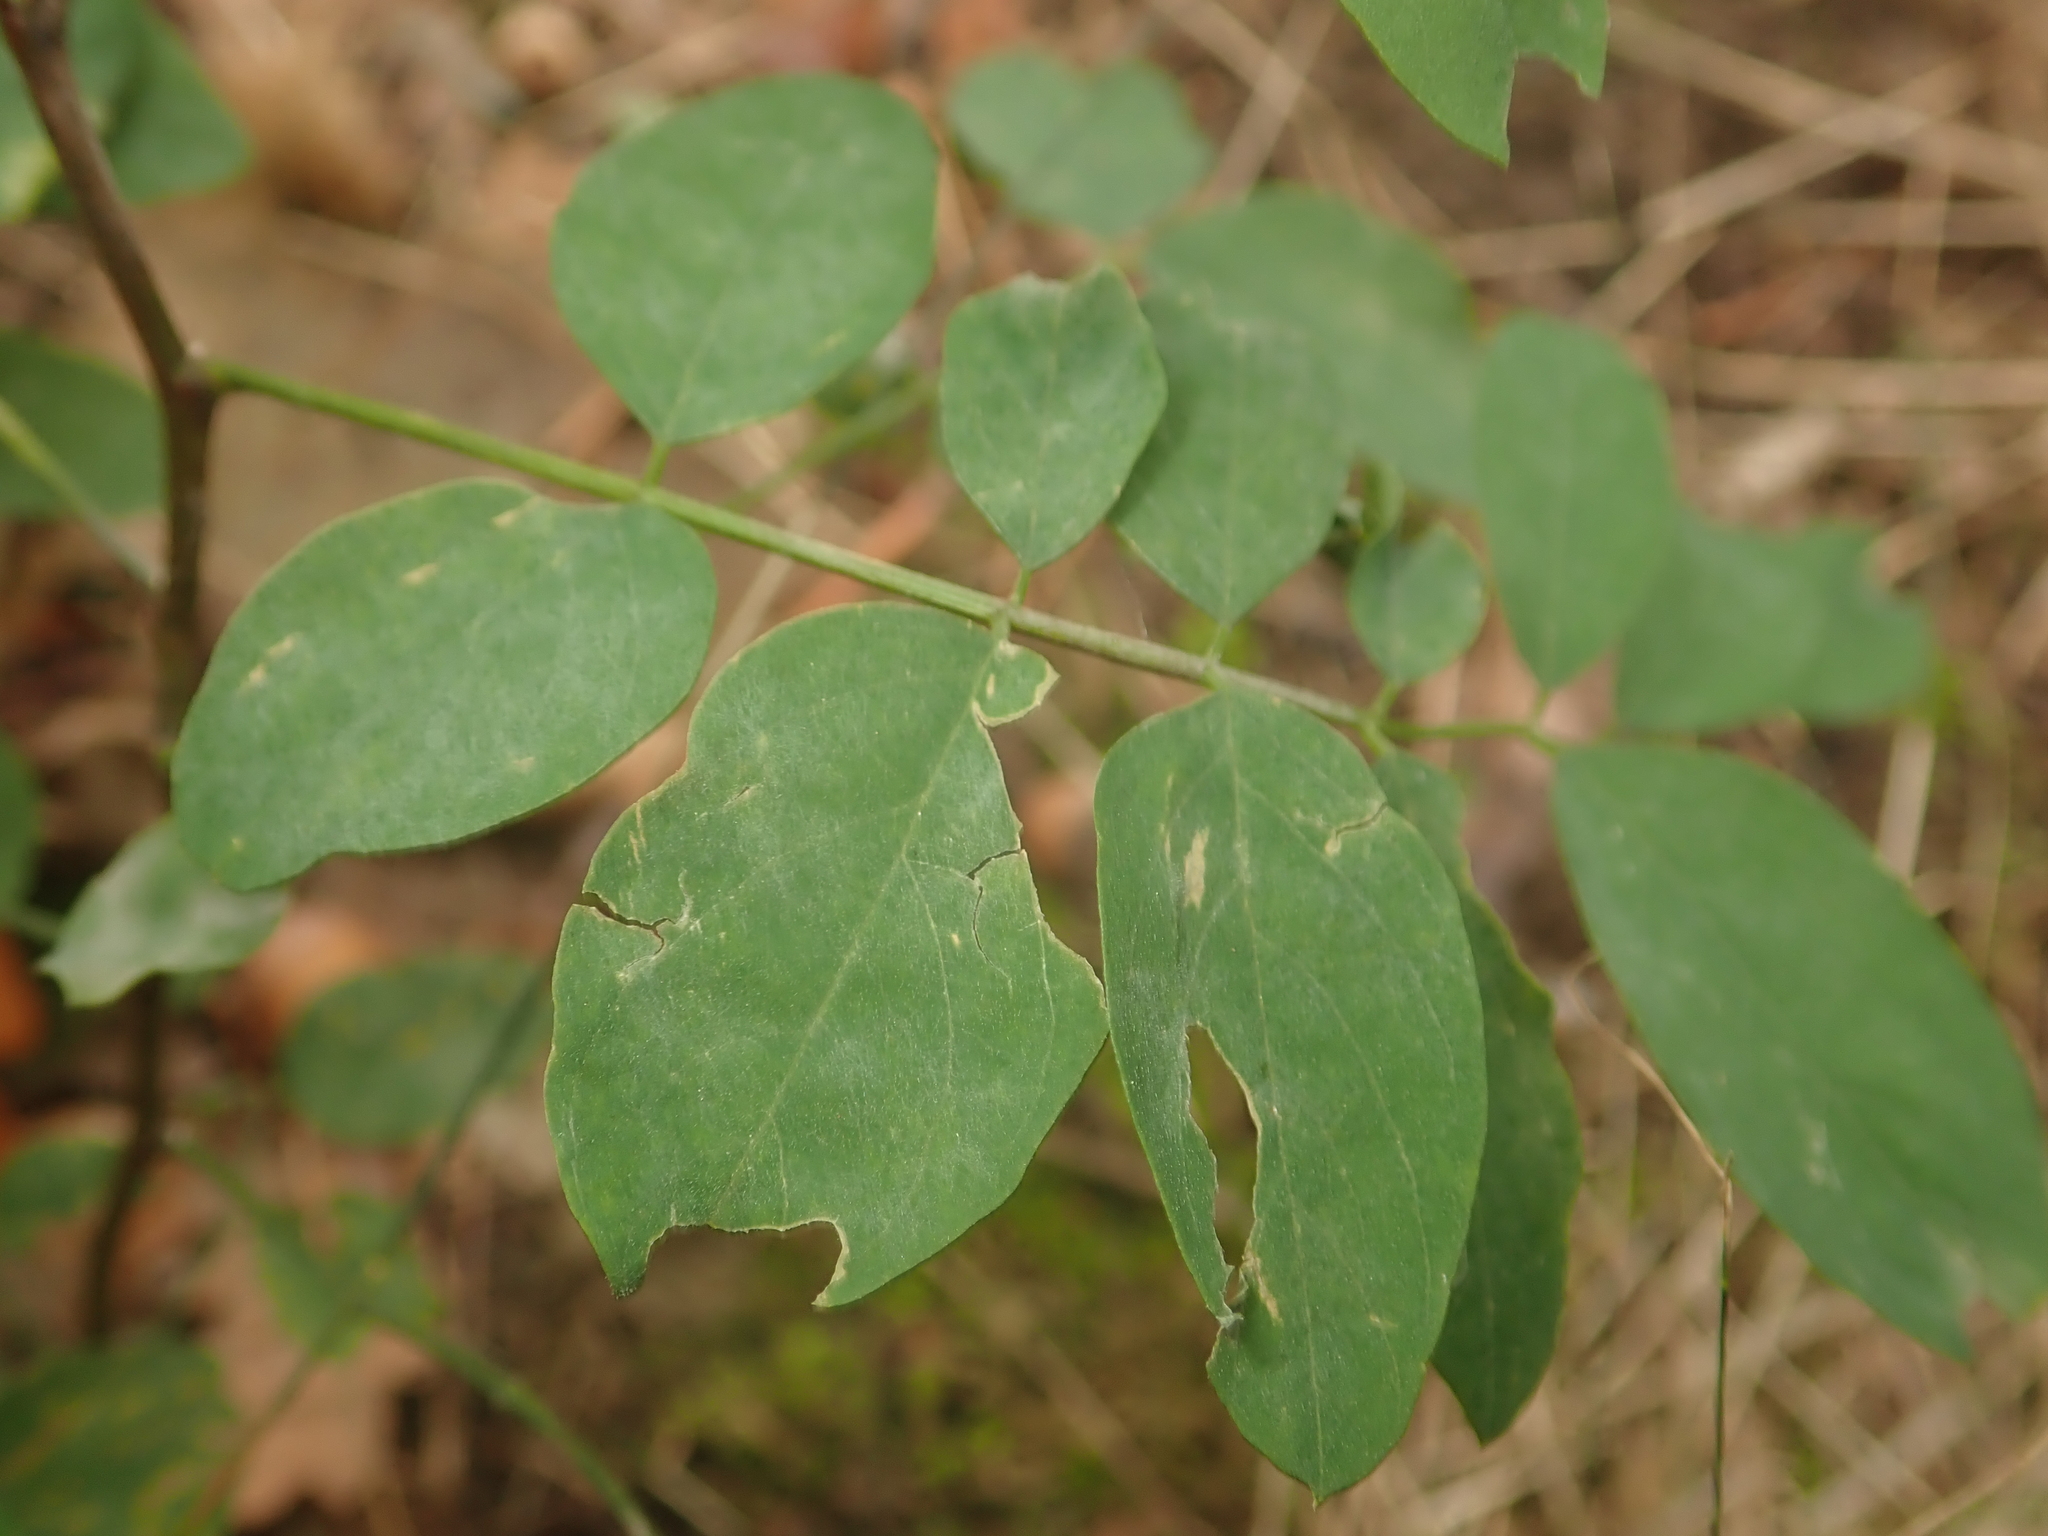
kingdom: Plantae
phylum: Tracheophyta
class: Magnoliopsida
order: Fabales
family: Fabaceae
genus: Robinia
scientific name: Robinia pseudoacacia
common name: Black locust
